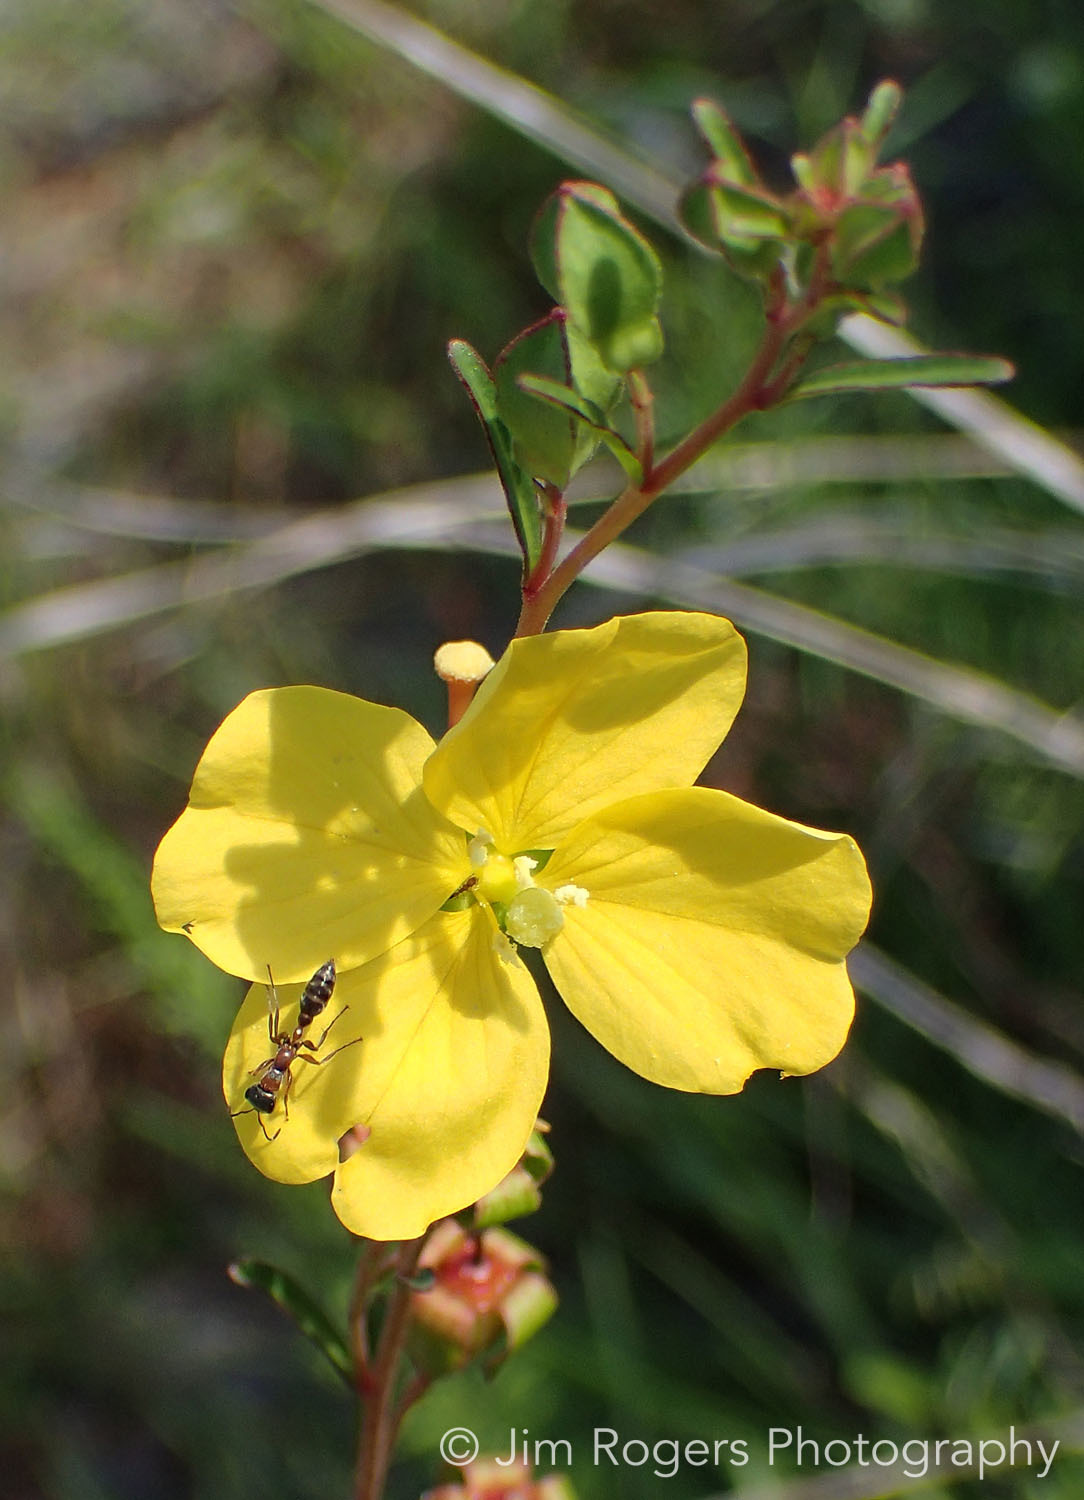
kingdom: Plantae
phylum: Tracheophyta
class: Magnoliopsida
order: Myrtales
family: Onagraceae
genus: Ludwigia
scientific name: Ludwigia maritima
